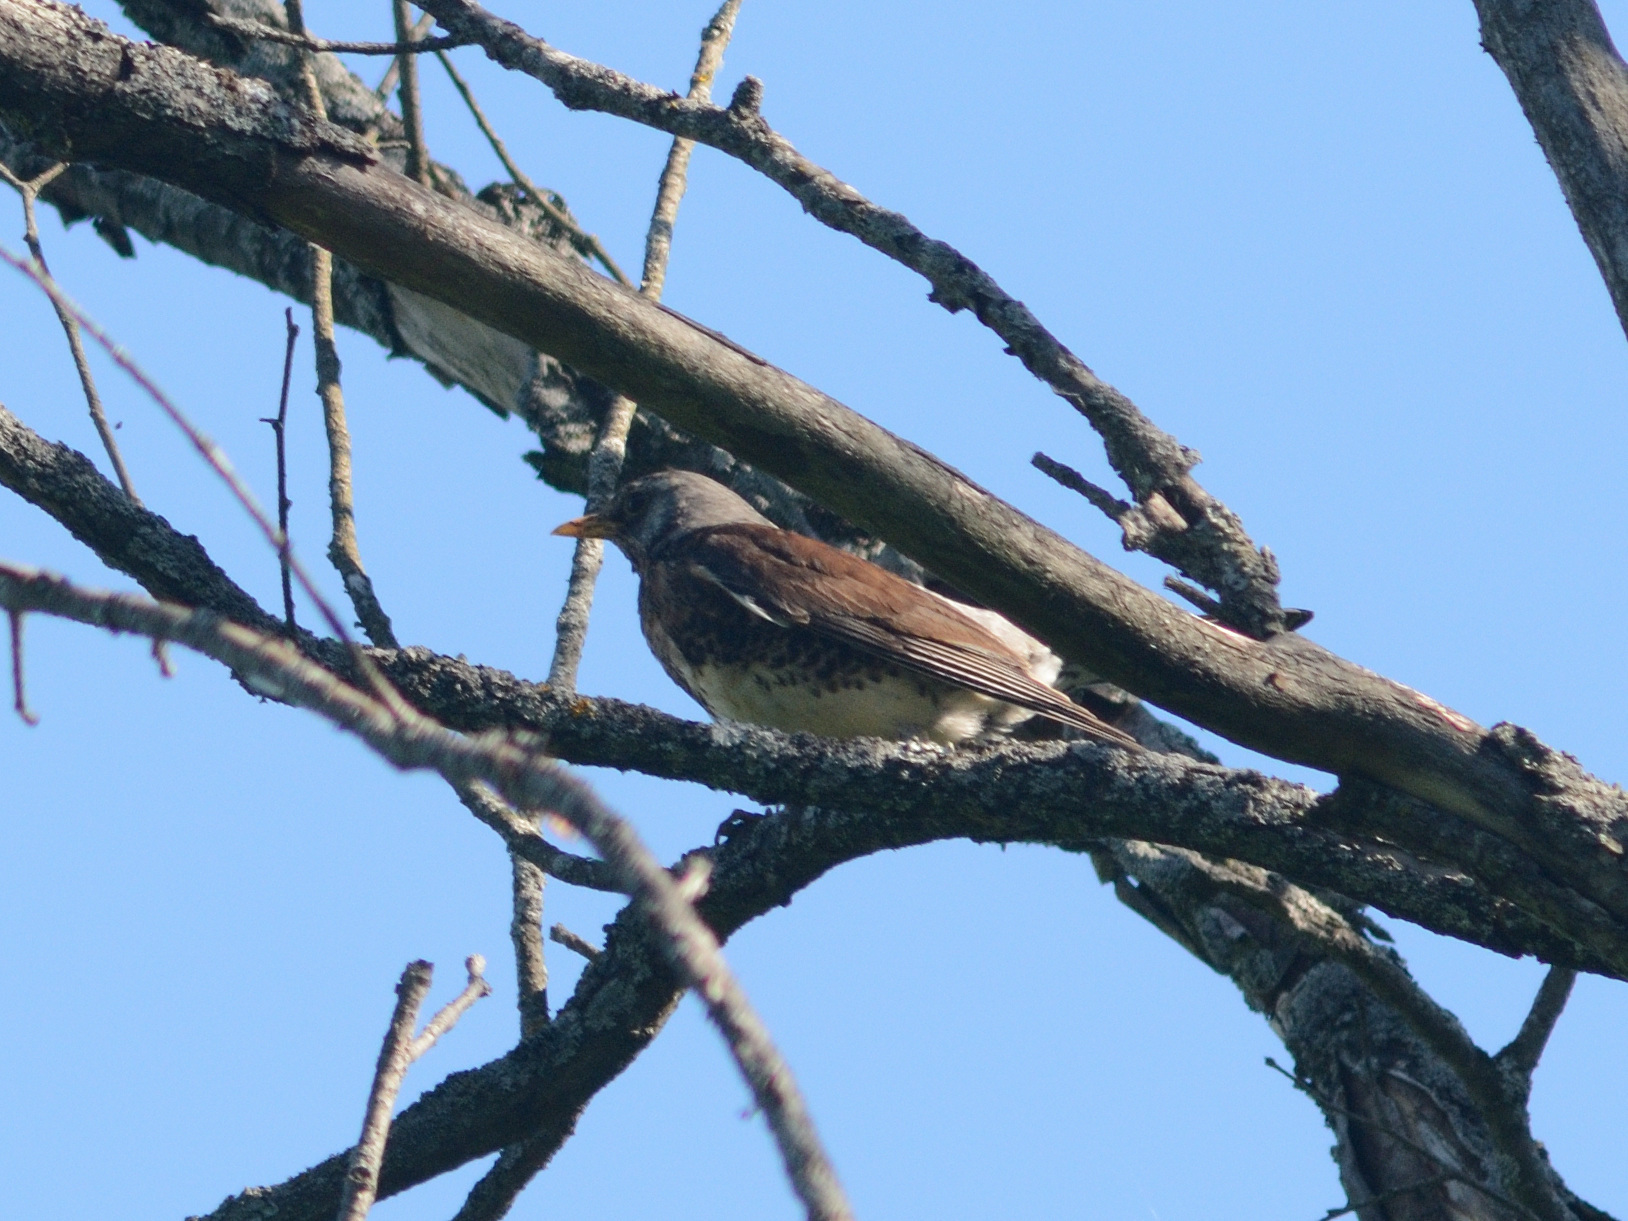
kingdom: Animalia
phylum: Chordata
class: Aves
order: Passeriformes
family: Turdidae
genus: Turdus
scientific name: Turdus pilaris
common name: Fieldfare
